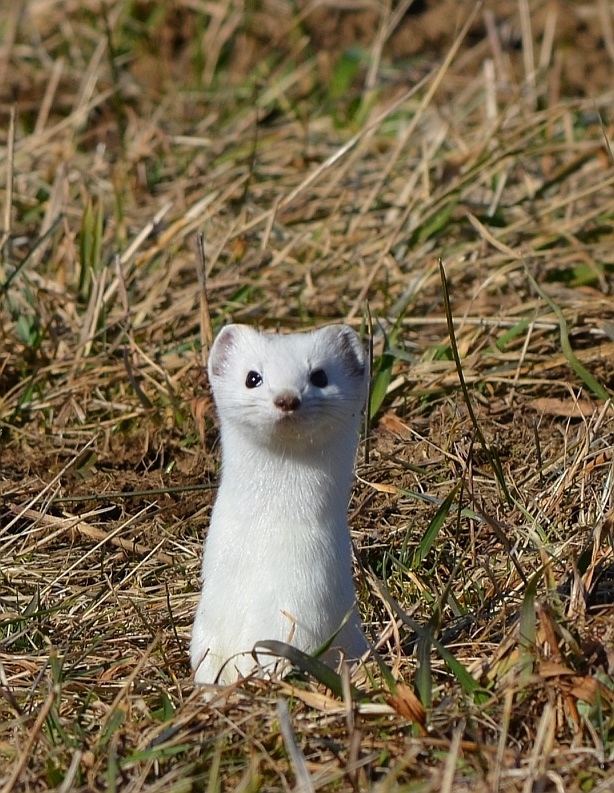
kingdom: Animalia
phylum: Chordata
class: Mammalia
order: Carnivora
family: Mustelidae
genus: Mustela
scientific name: Mustela erminea
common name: Stoat
